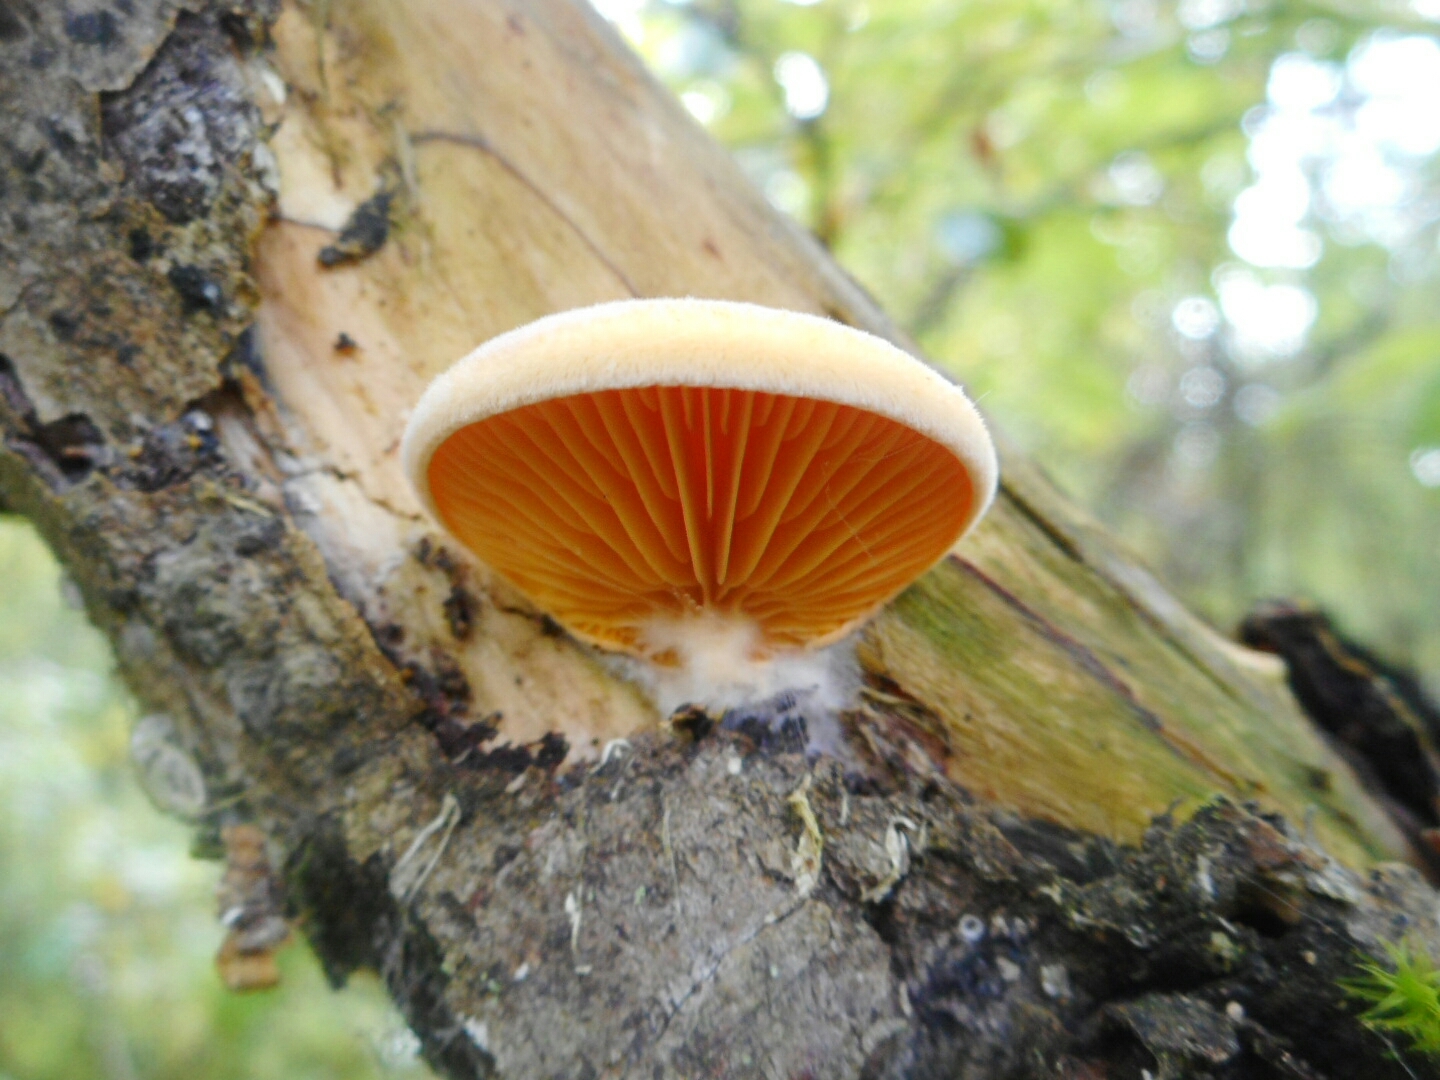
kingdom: Fungi
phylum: Basidiomycota
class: Agaricomycetes
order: Agaricales
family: Phyllotopsidaceae
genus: Phyllotopsis
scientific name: Phyllotopsis nidulans
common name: Orange mock oyster
